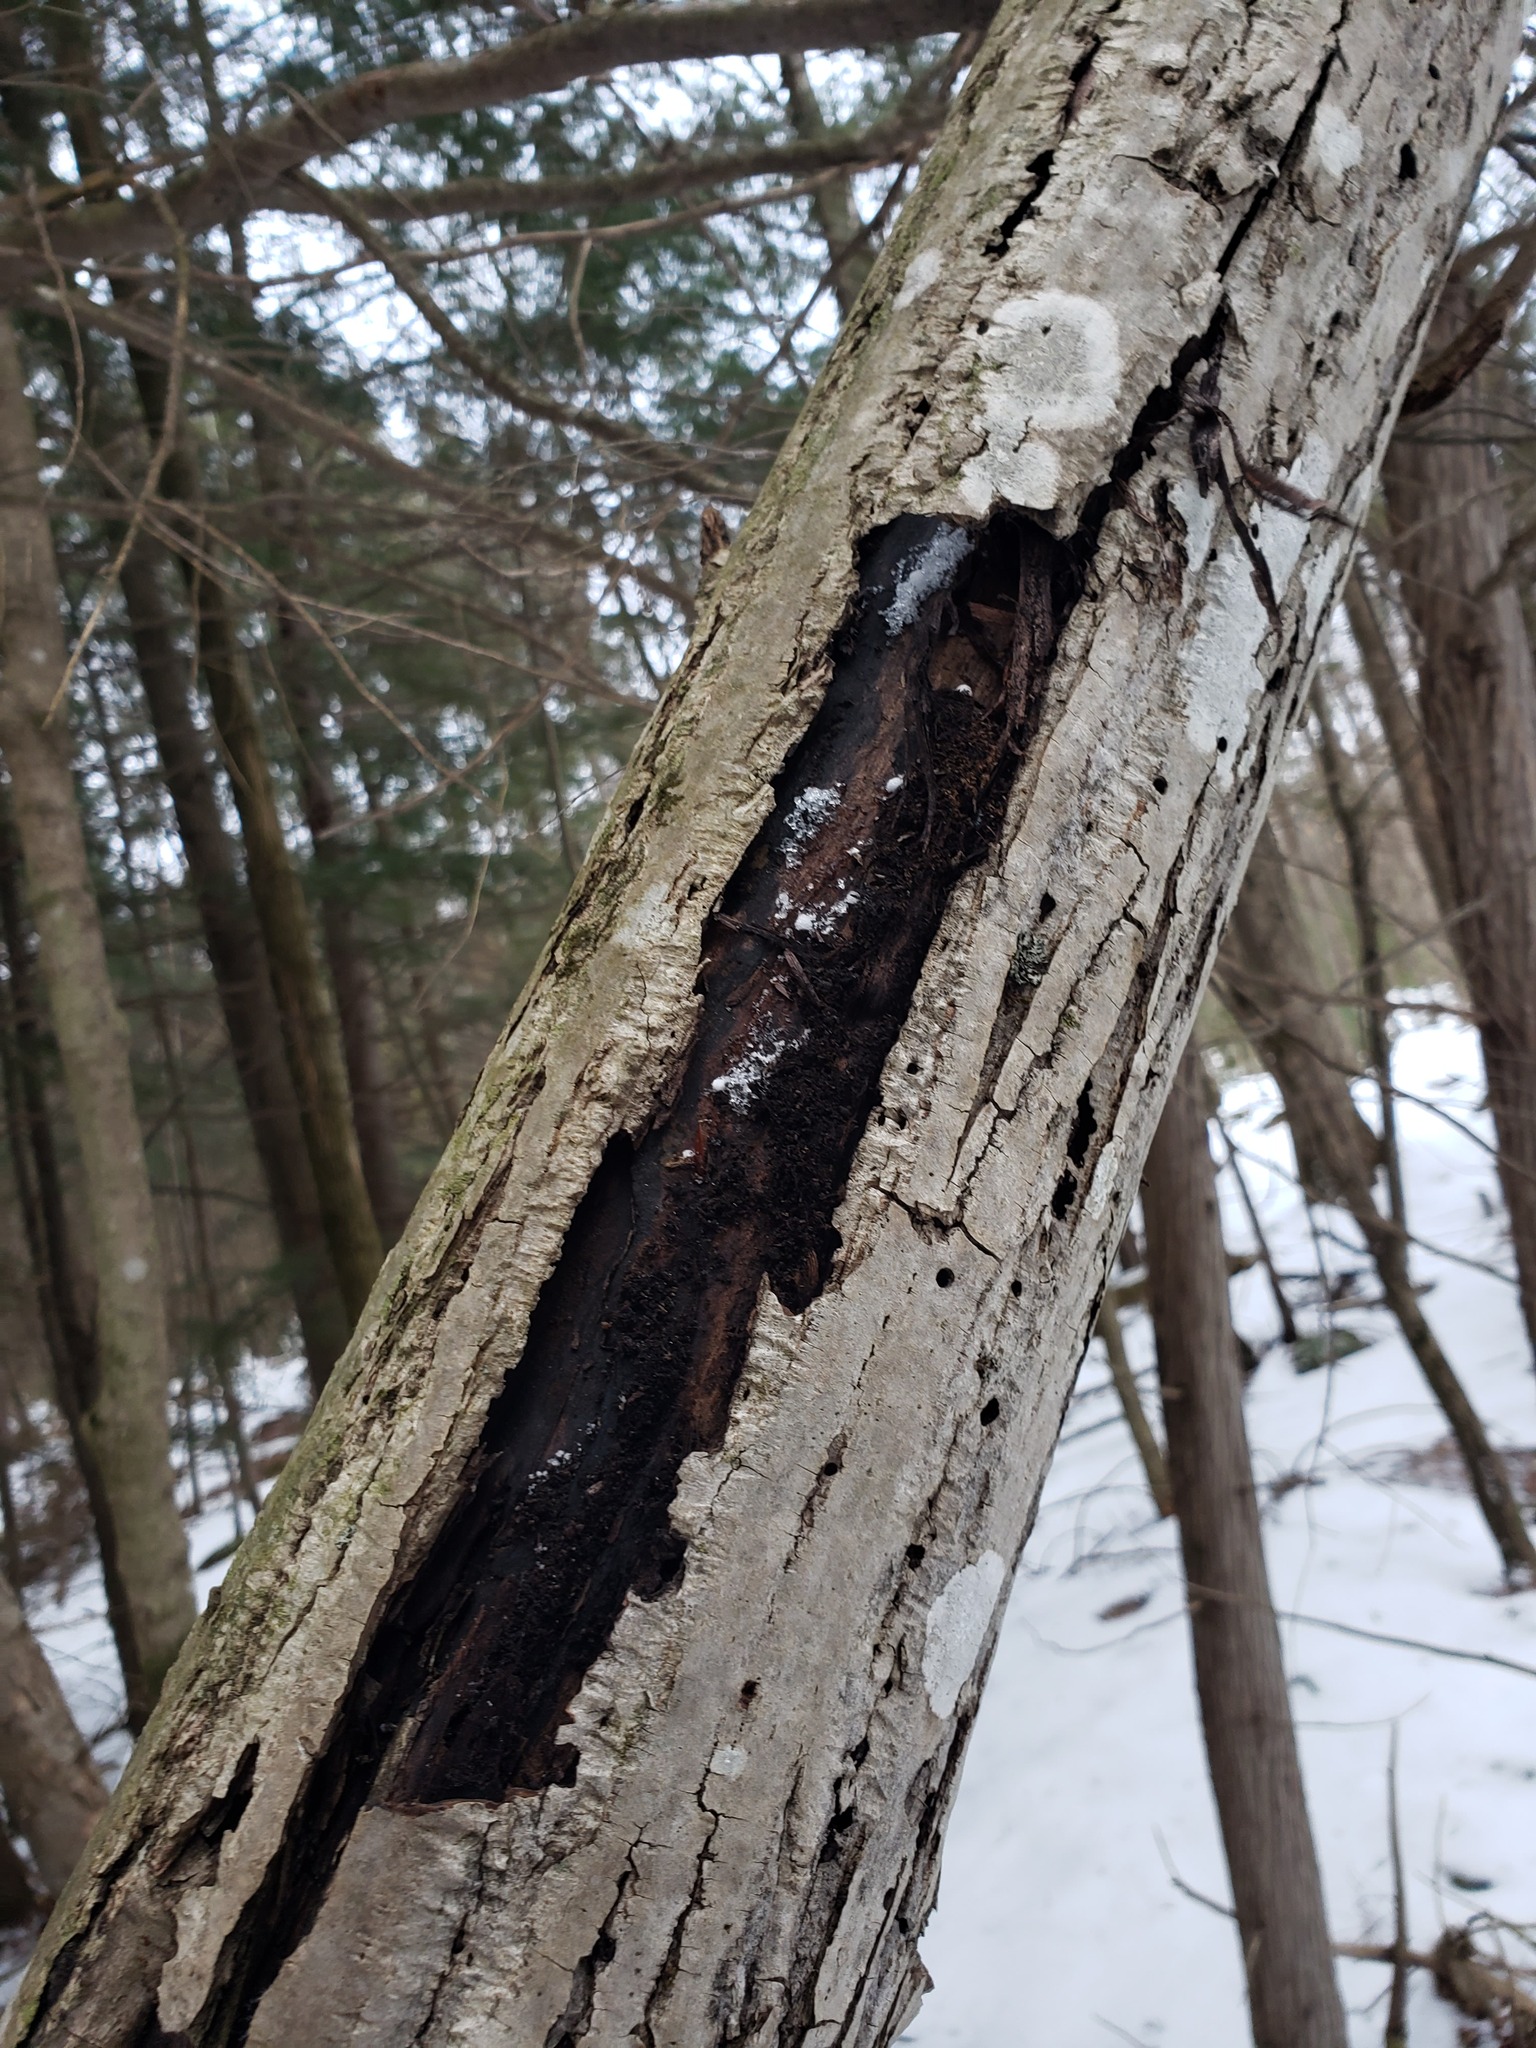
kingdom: Fungi
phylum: Ascomycota
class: Sordariomycetes
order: Diaporthales
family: Gnomoniaceae
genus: Ophiognomonia
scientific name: Ophiognomonia clavigignenti-juglandacearum
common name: Butternut canker fungus
